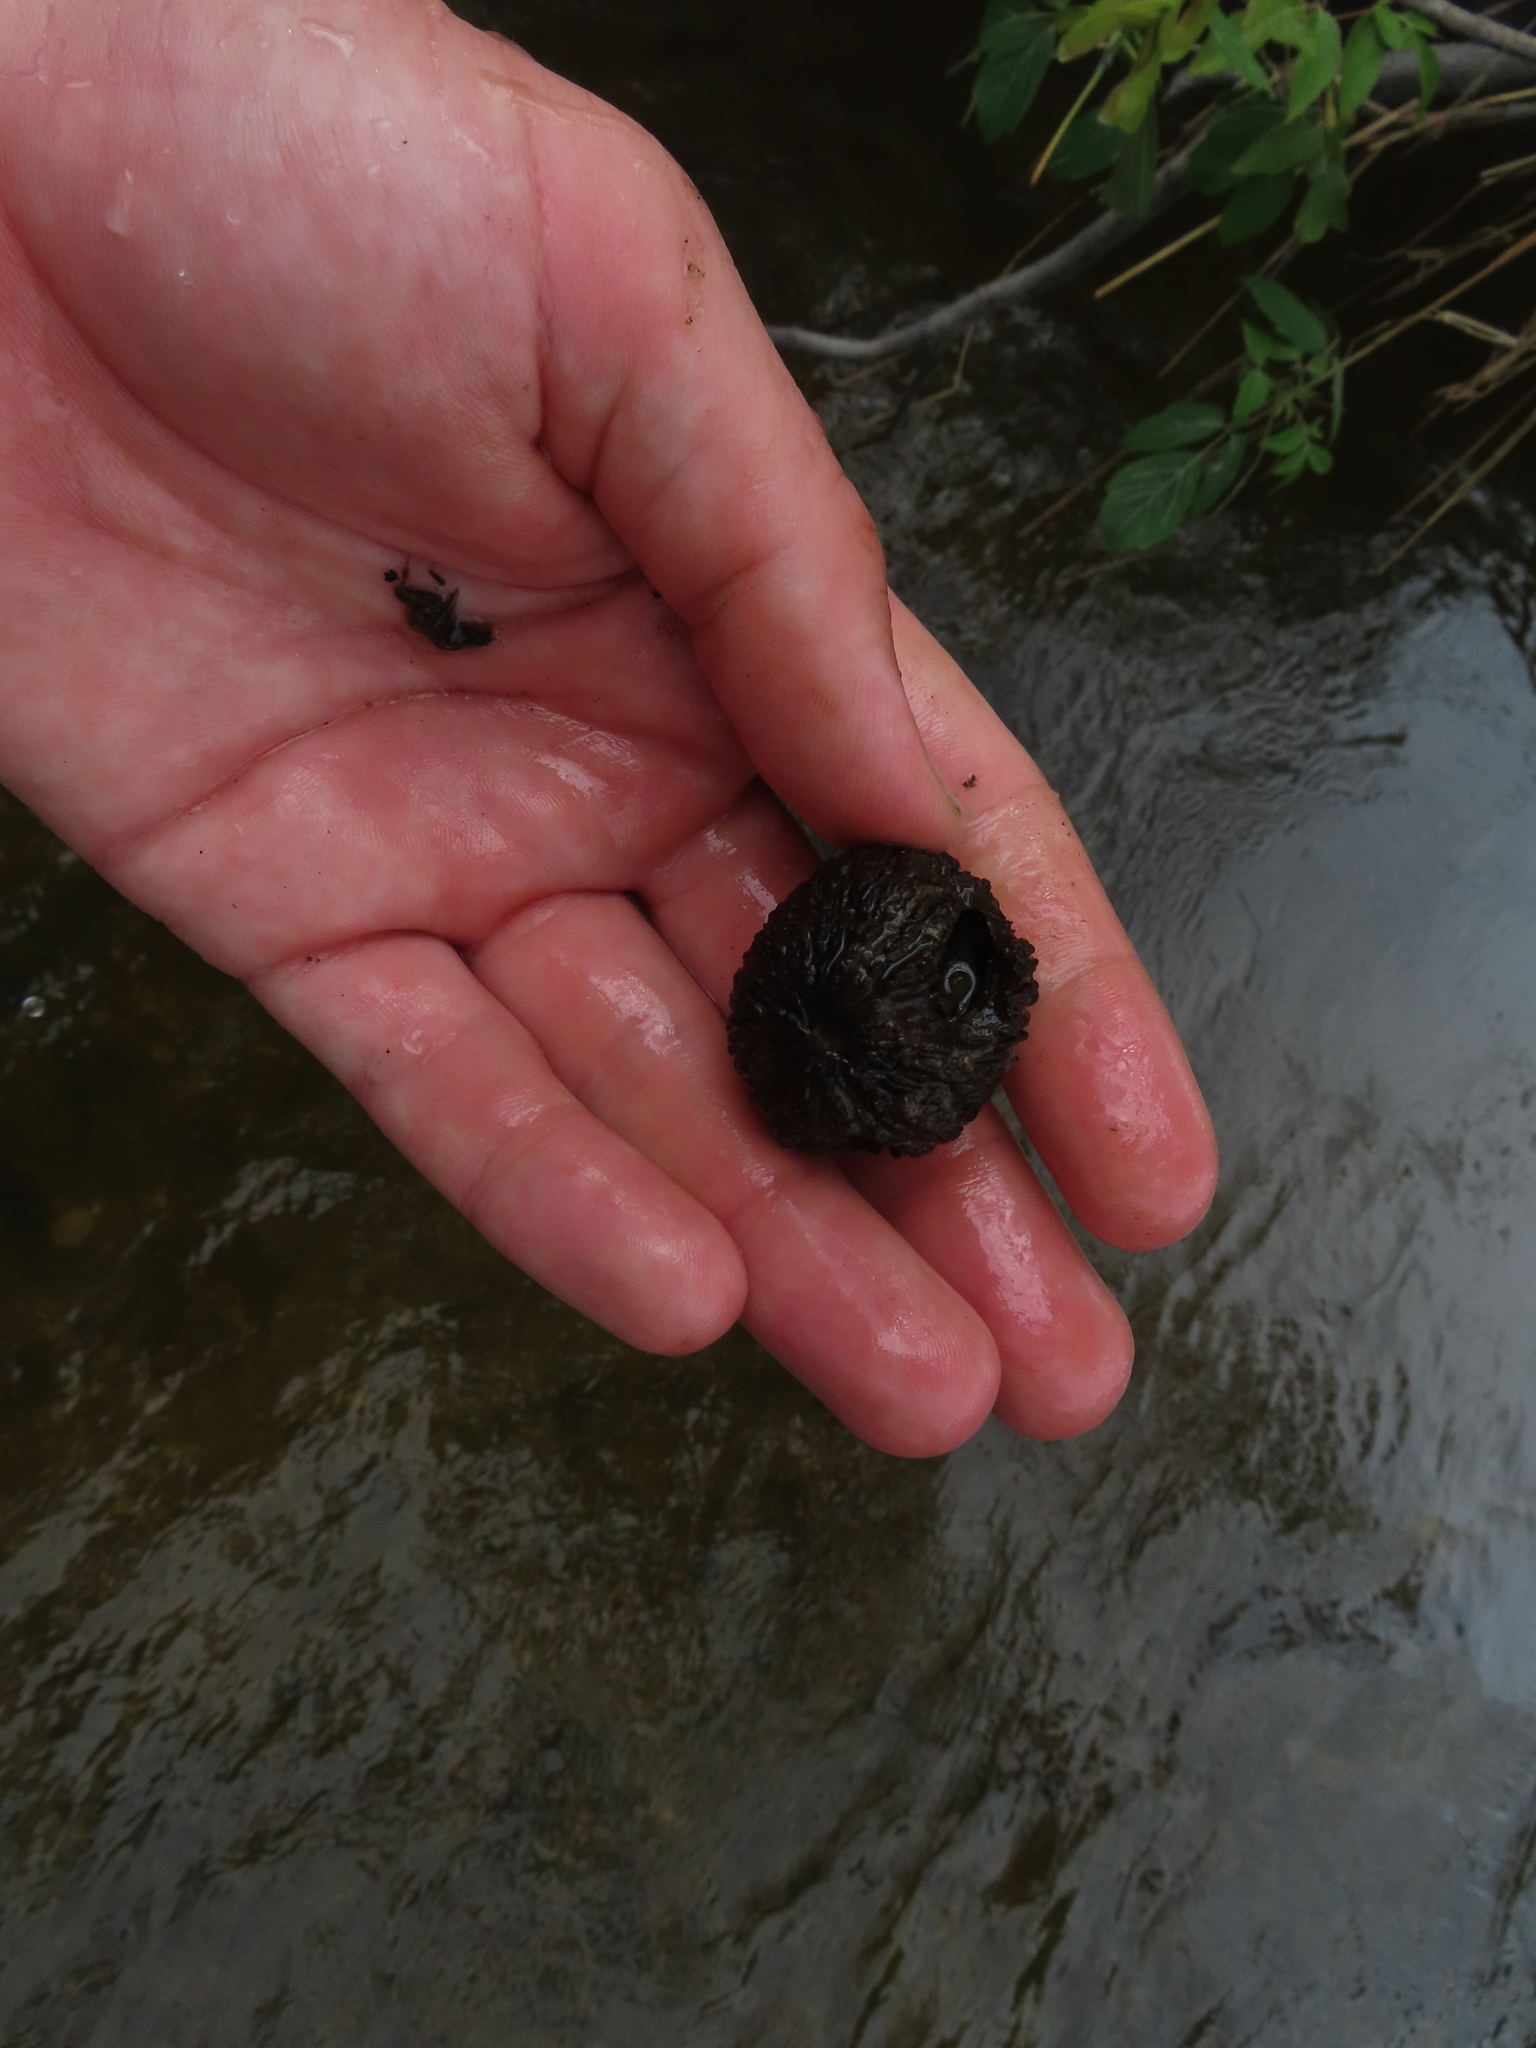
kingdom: Plantae
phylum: Tracheophyta
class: Magnoliopsida
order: Fagales
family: Juglandaceae
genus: Juglans
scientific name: Juglans nigra
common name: Black walnut
